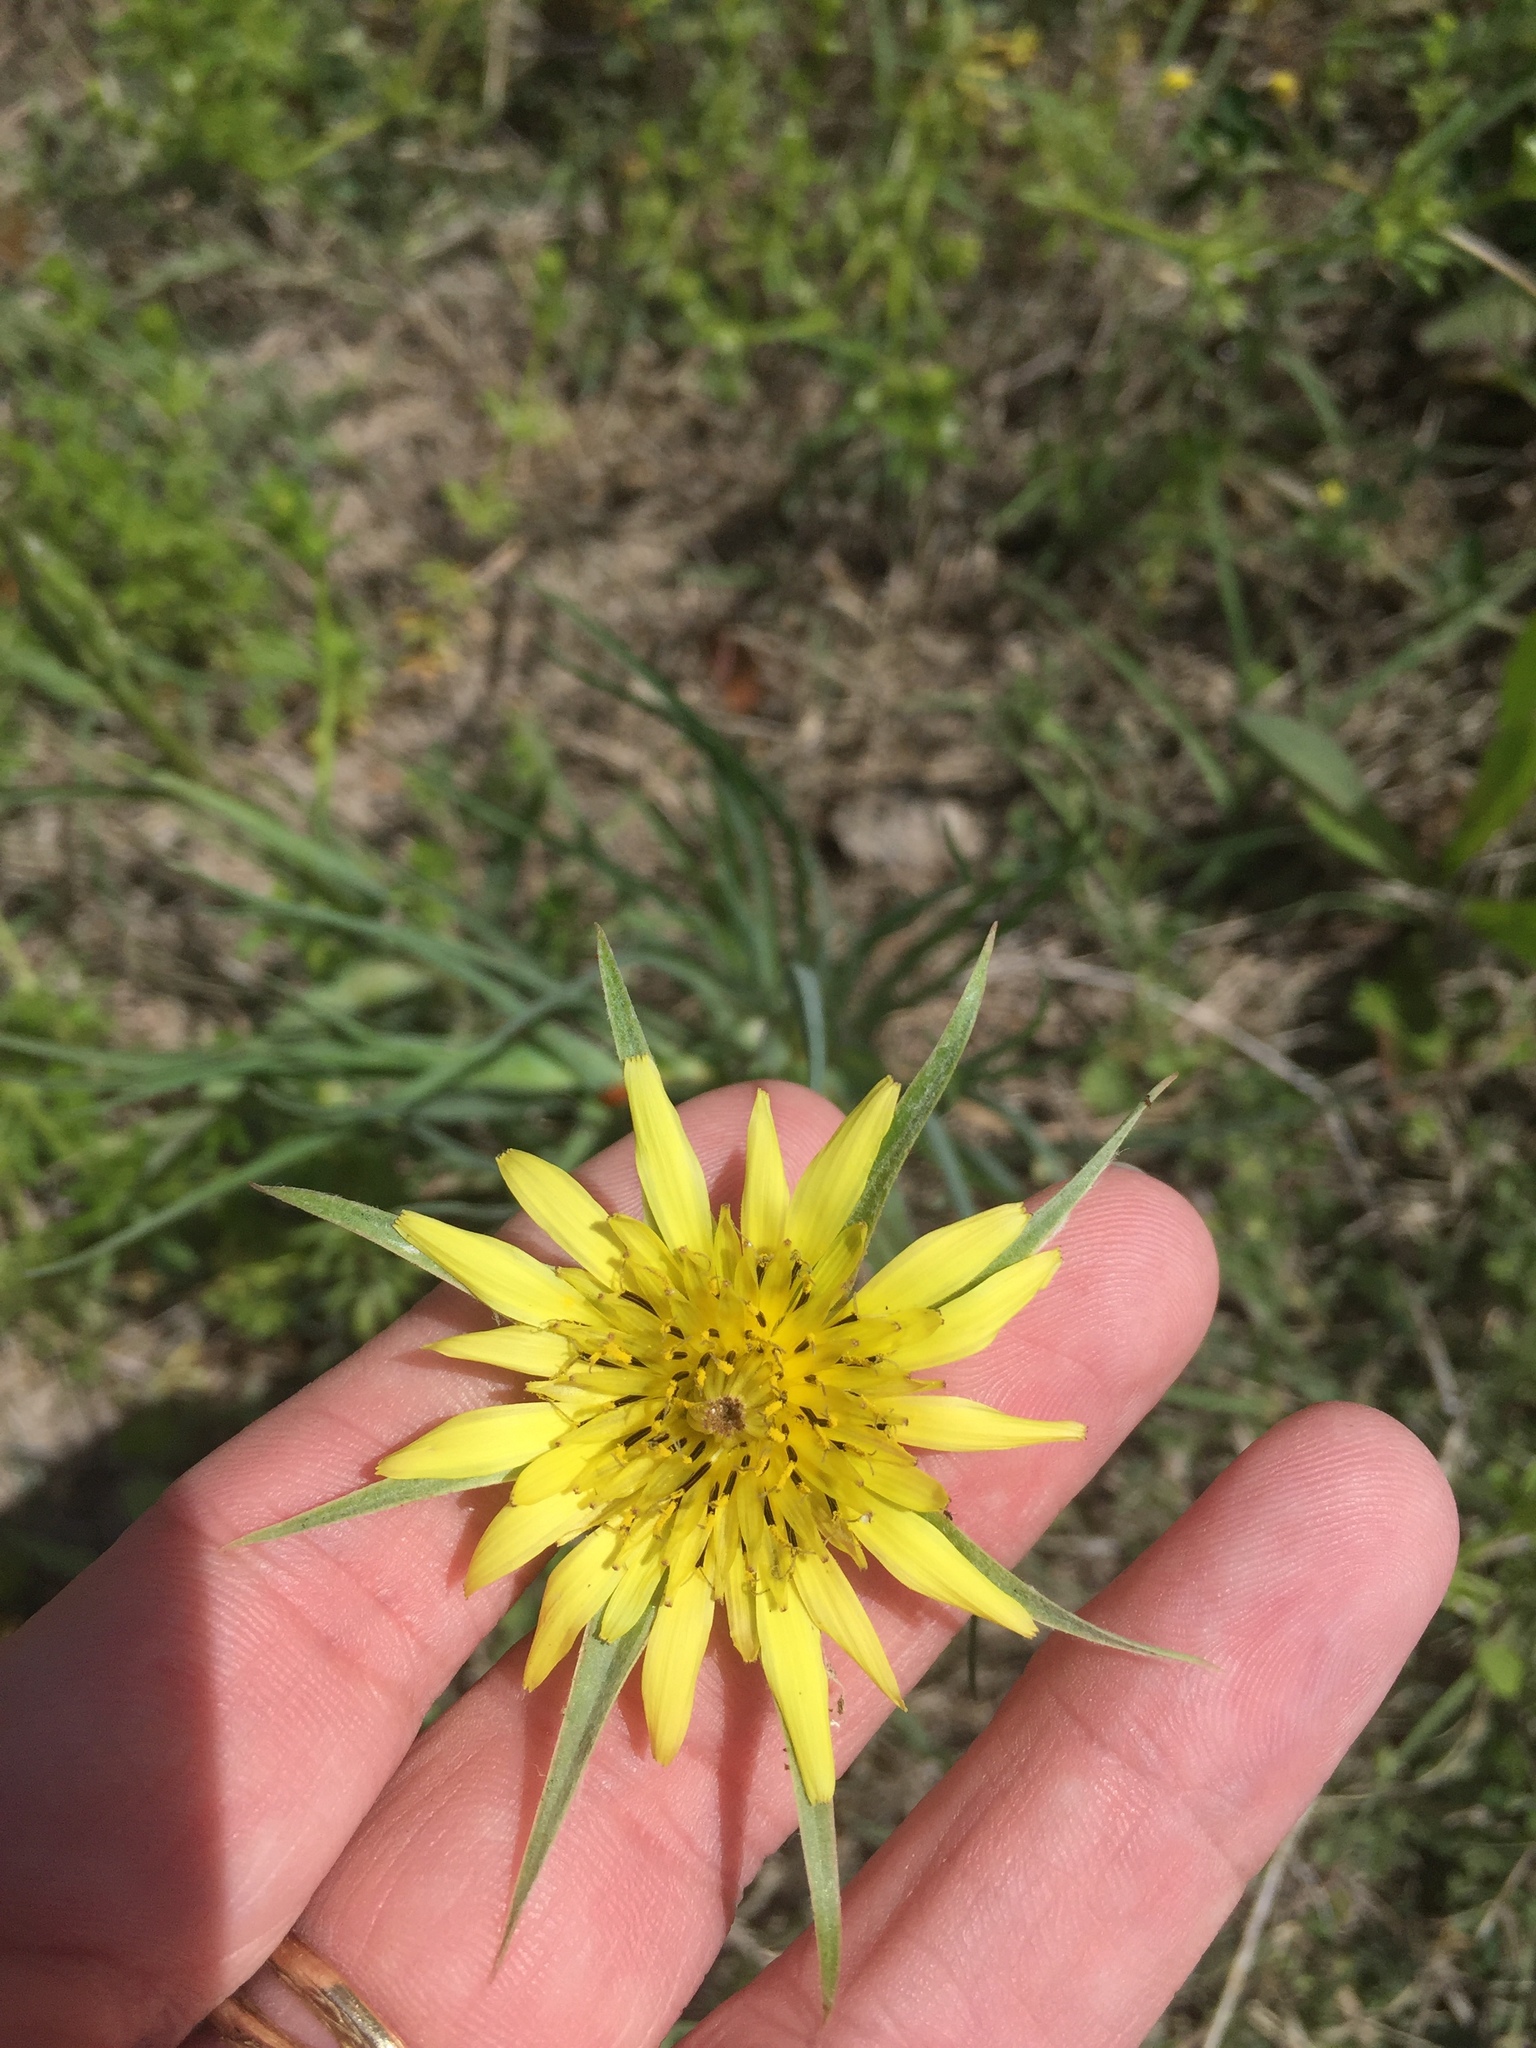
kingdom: Plantae
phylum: Tracheophyta
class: Magnoliopsida
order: Asterales
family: Asteraceae
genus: Tragopogon
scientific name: Tragopogon dubius
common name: Yellow salsify
